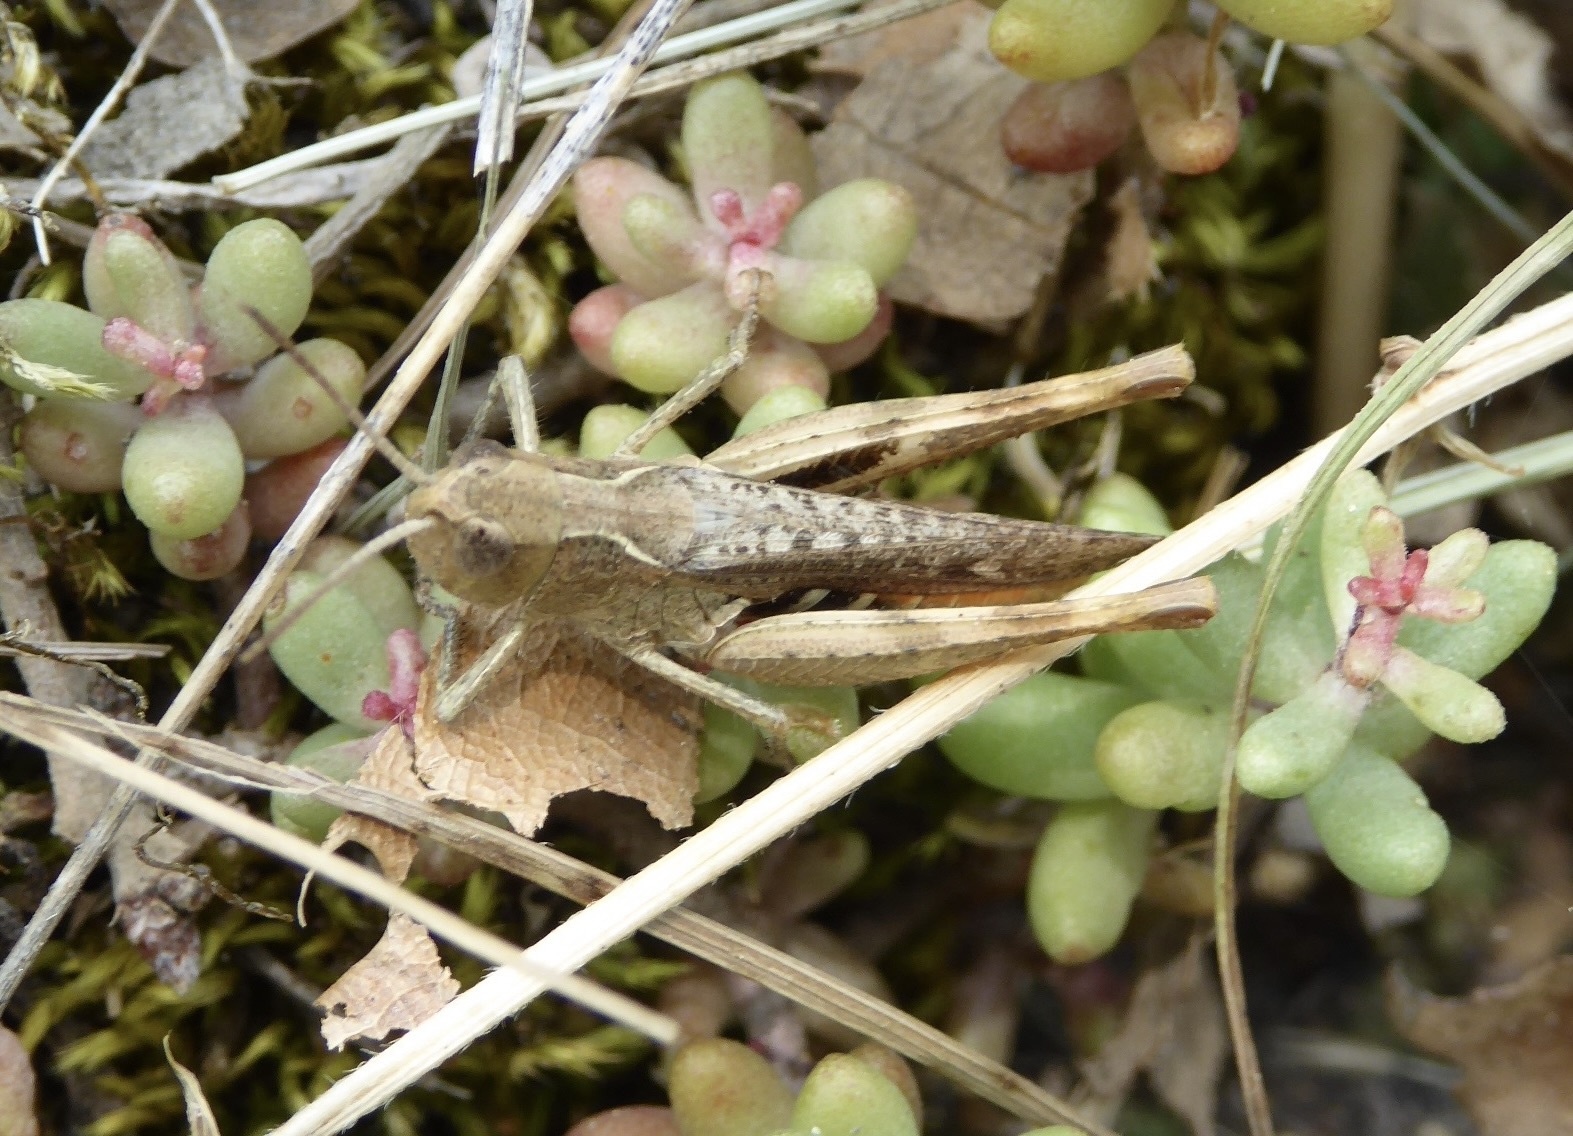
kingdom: Animalia
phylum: Arthropoda
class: Insecta
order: Orthoptera
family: Acrididae
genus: Chorthippus
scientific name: Chorthippus vagans
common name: Heath grasshopper
